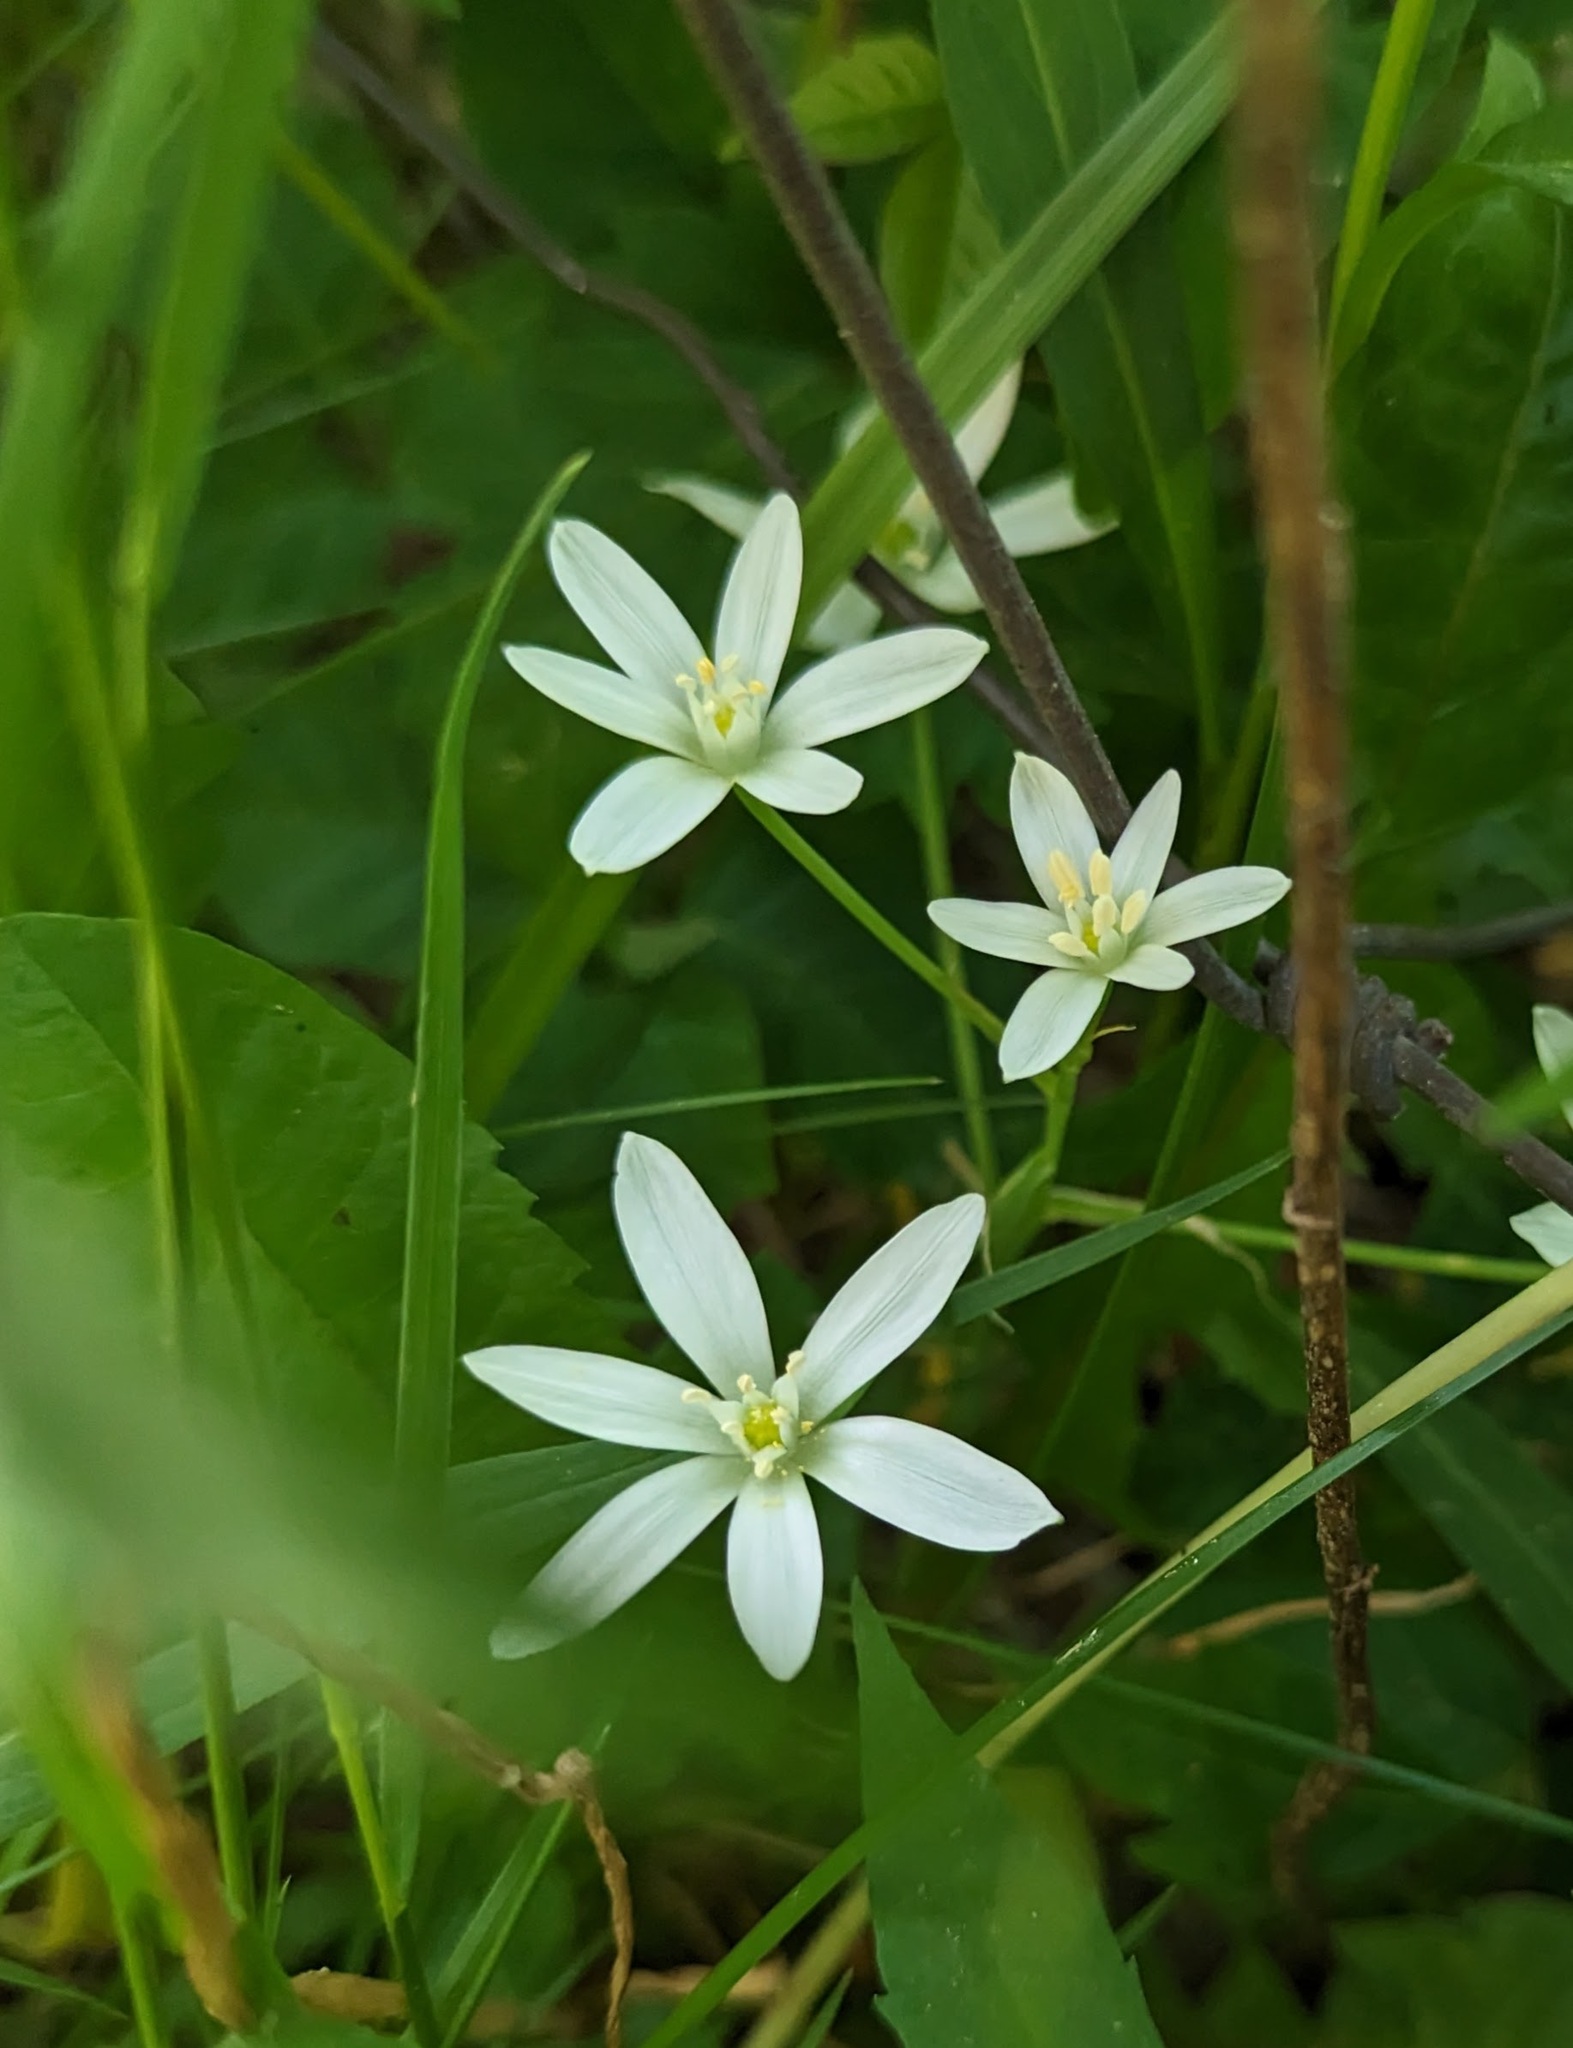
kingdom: Plantae
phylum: Tracheophyta
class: Liliopsida
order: Asparagales
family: Asparagaceae
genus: Ornithogalum
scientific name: Ornithogalum umbellatum
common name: Garden star-of-bethlehem
